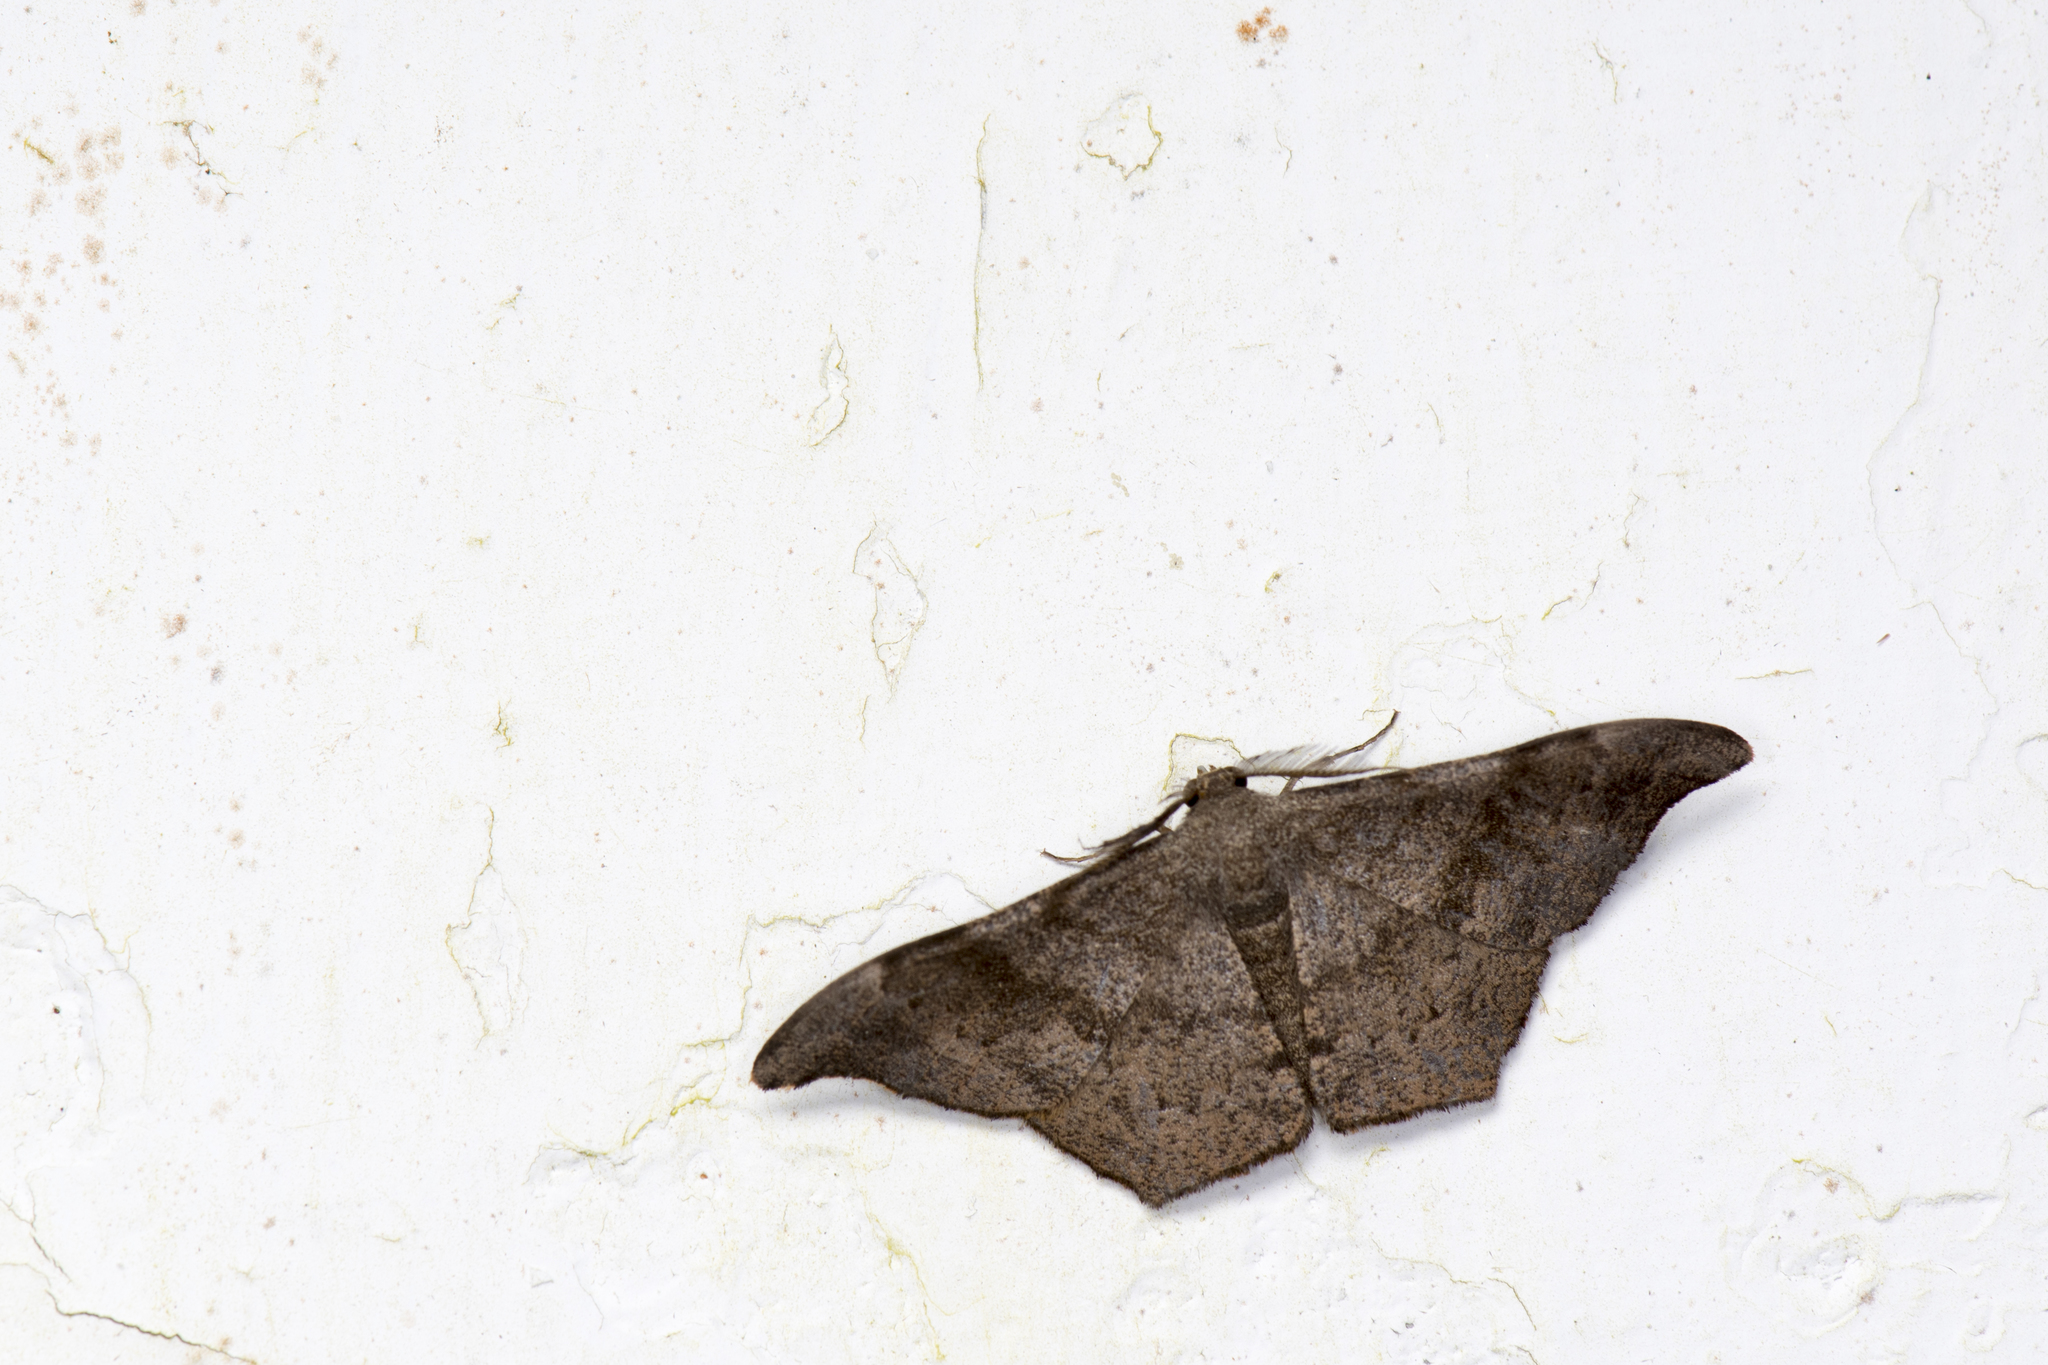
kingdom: Animalia
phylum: Arthropoda
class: Insecta
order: Lepidoptera
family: Geometridae
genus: Hyposidra
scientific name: Hyposidra talaca
